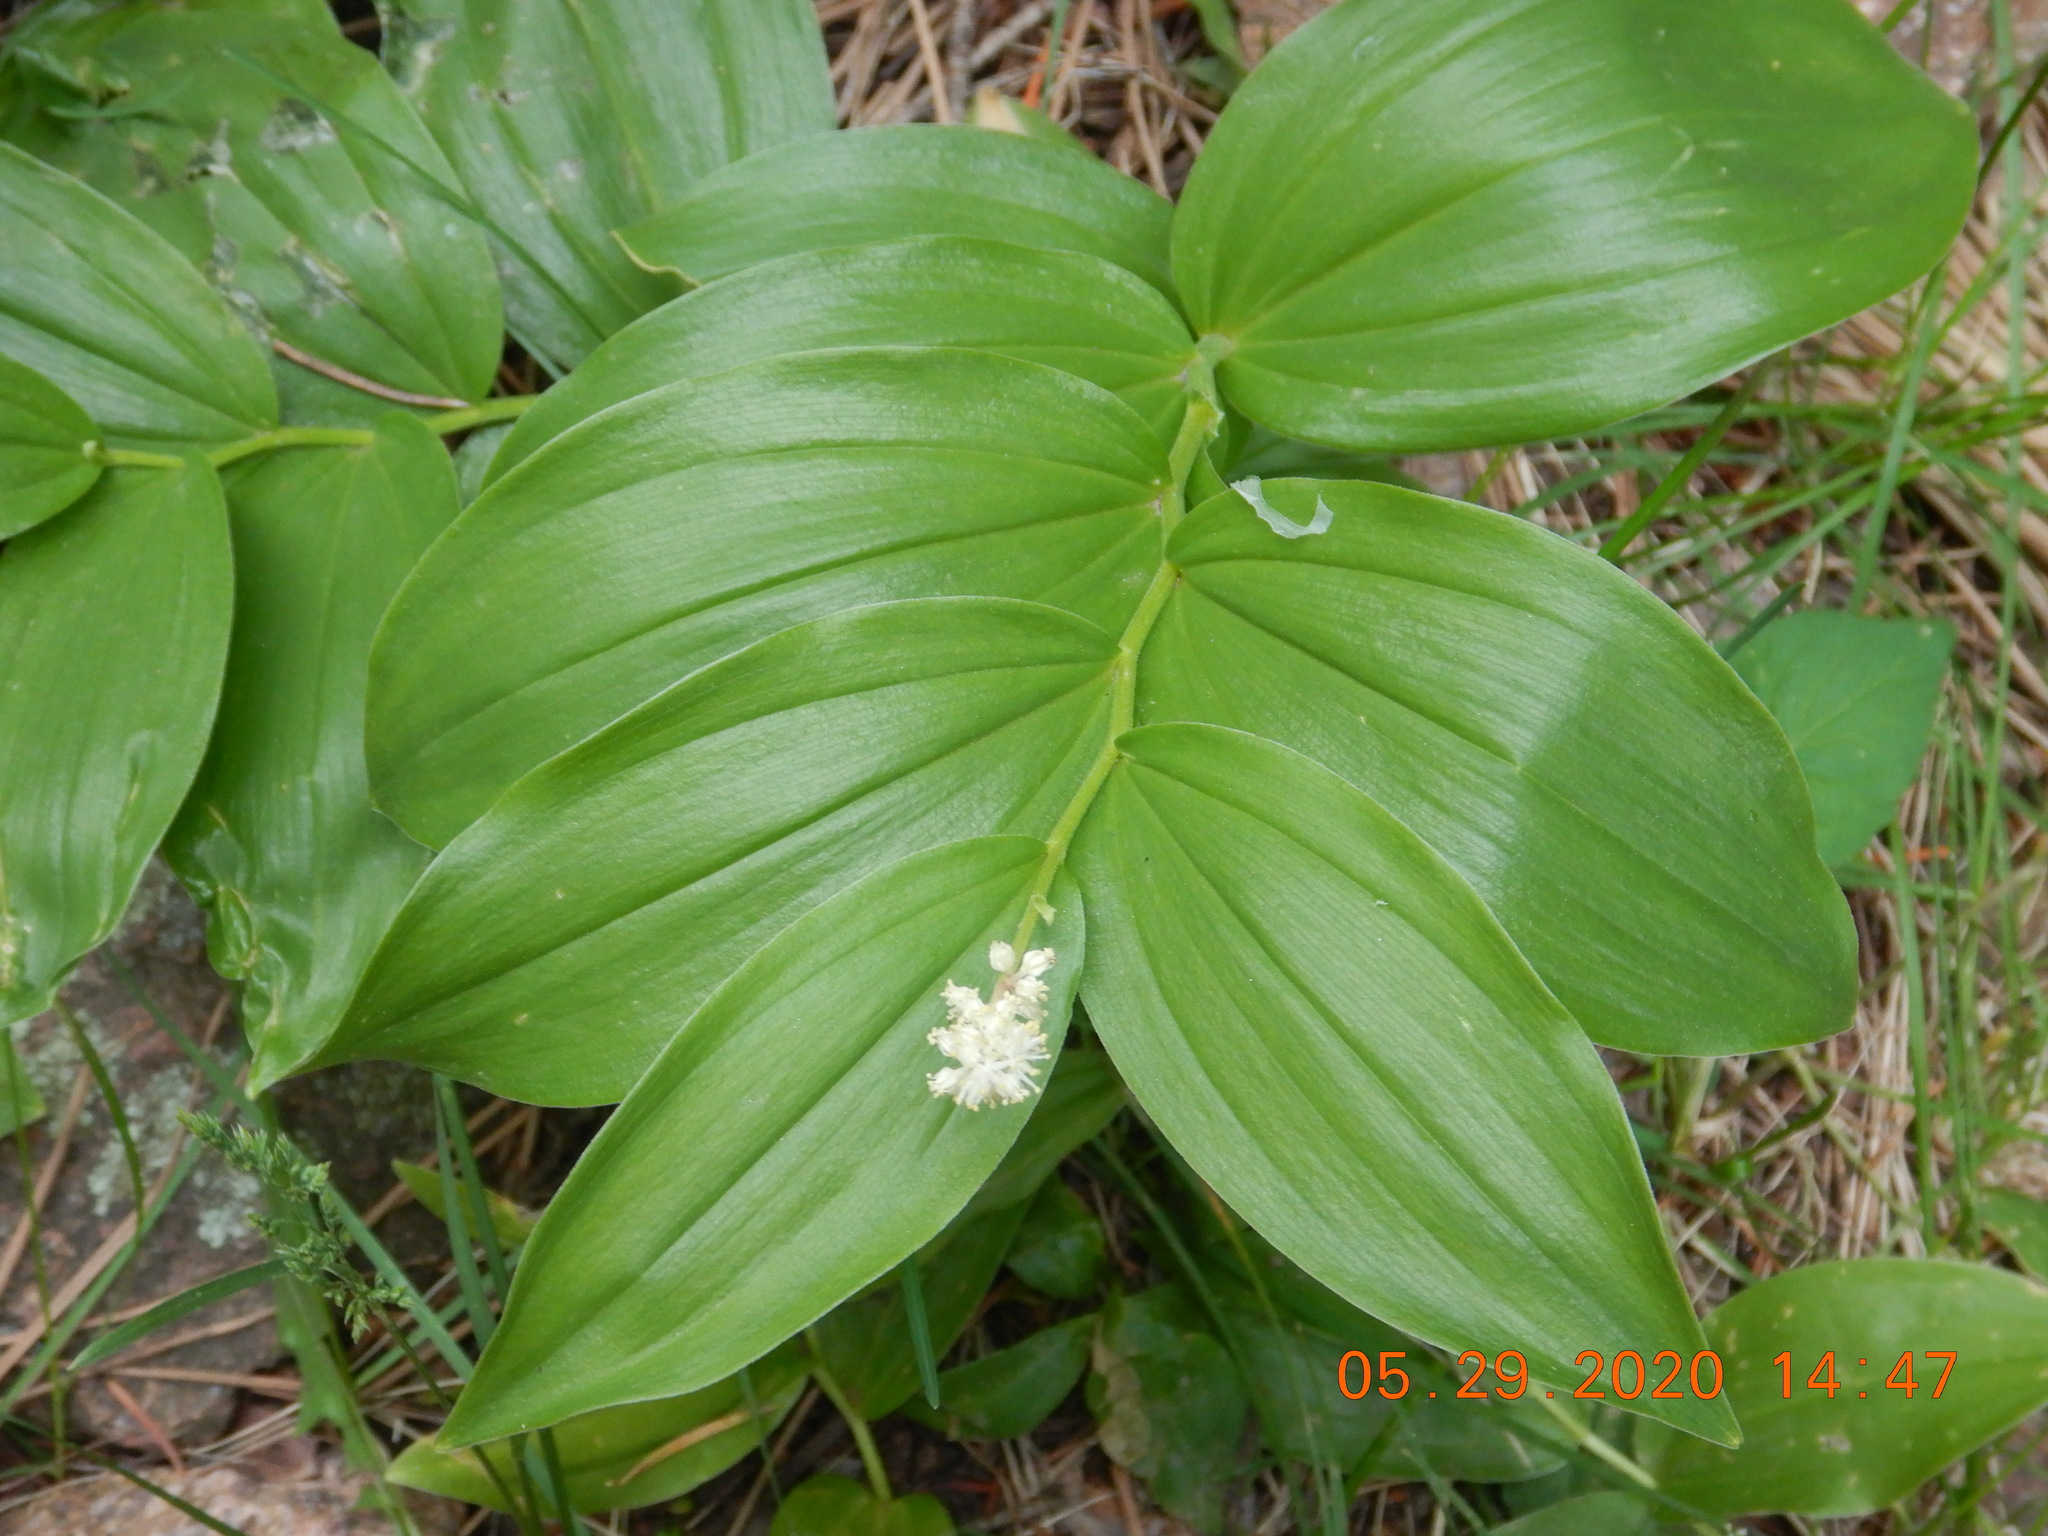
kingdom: Plantae
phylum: Tracheophyta
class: Liliopsida
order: Asparagales
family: Asparagaceae
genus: Maianthemum
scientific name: Maianthemum stellatum
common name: Little false solomon's seal
